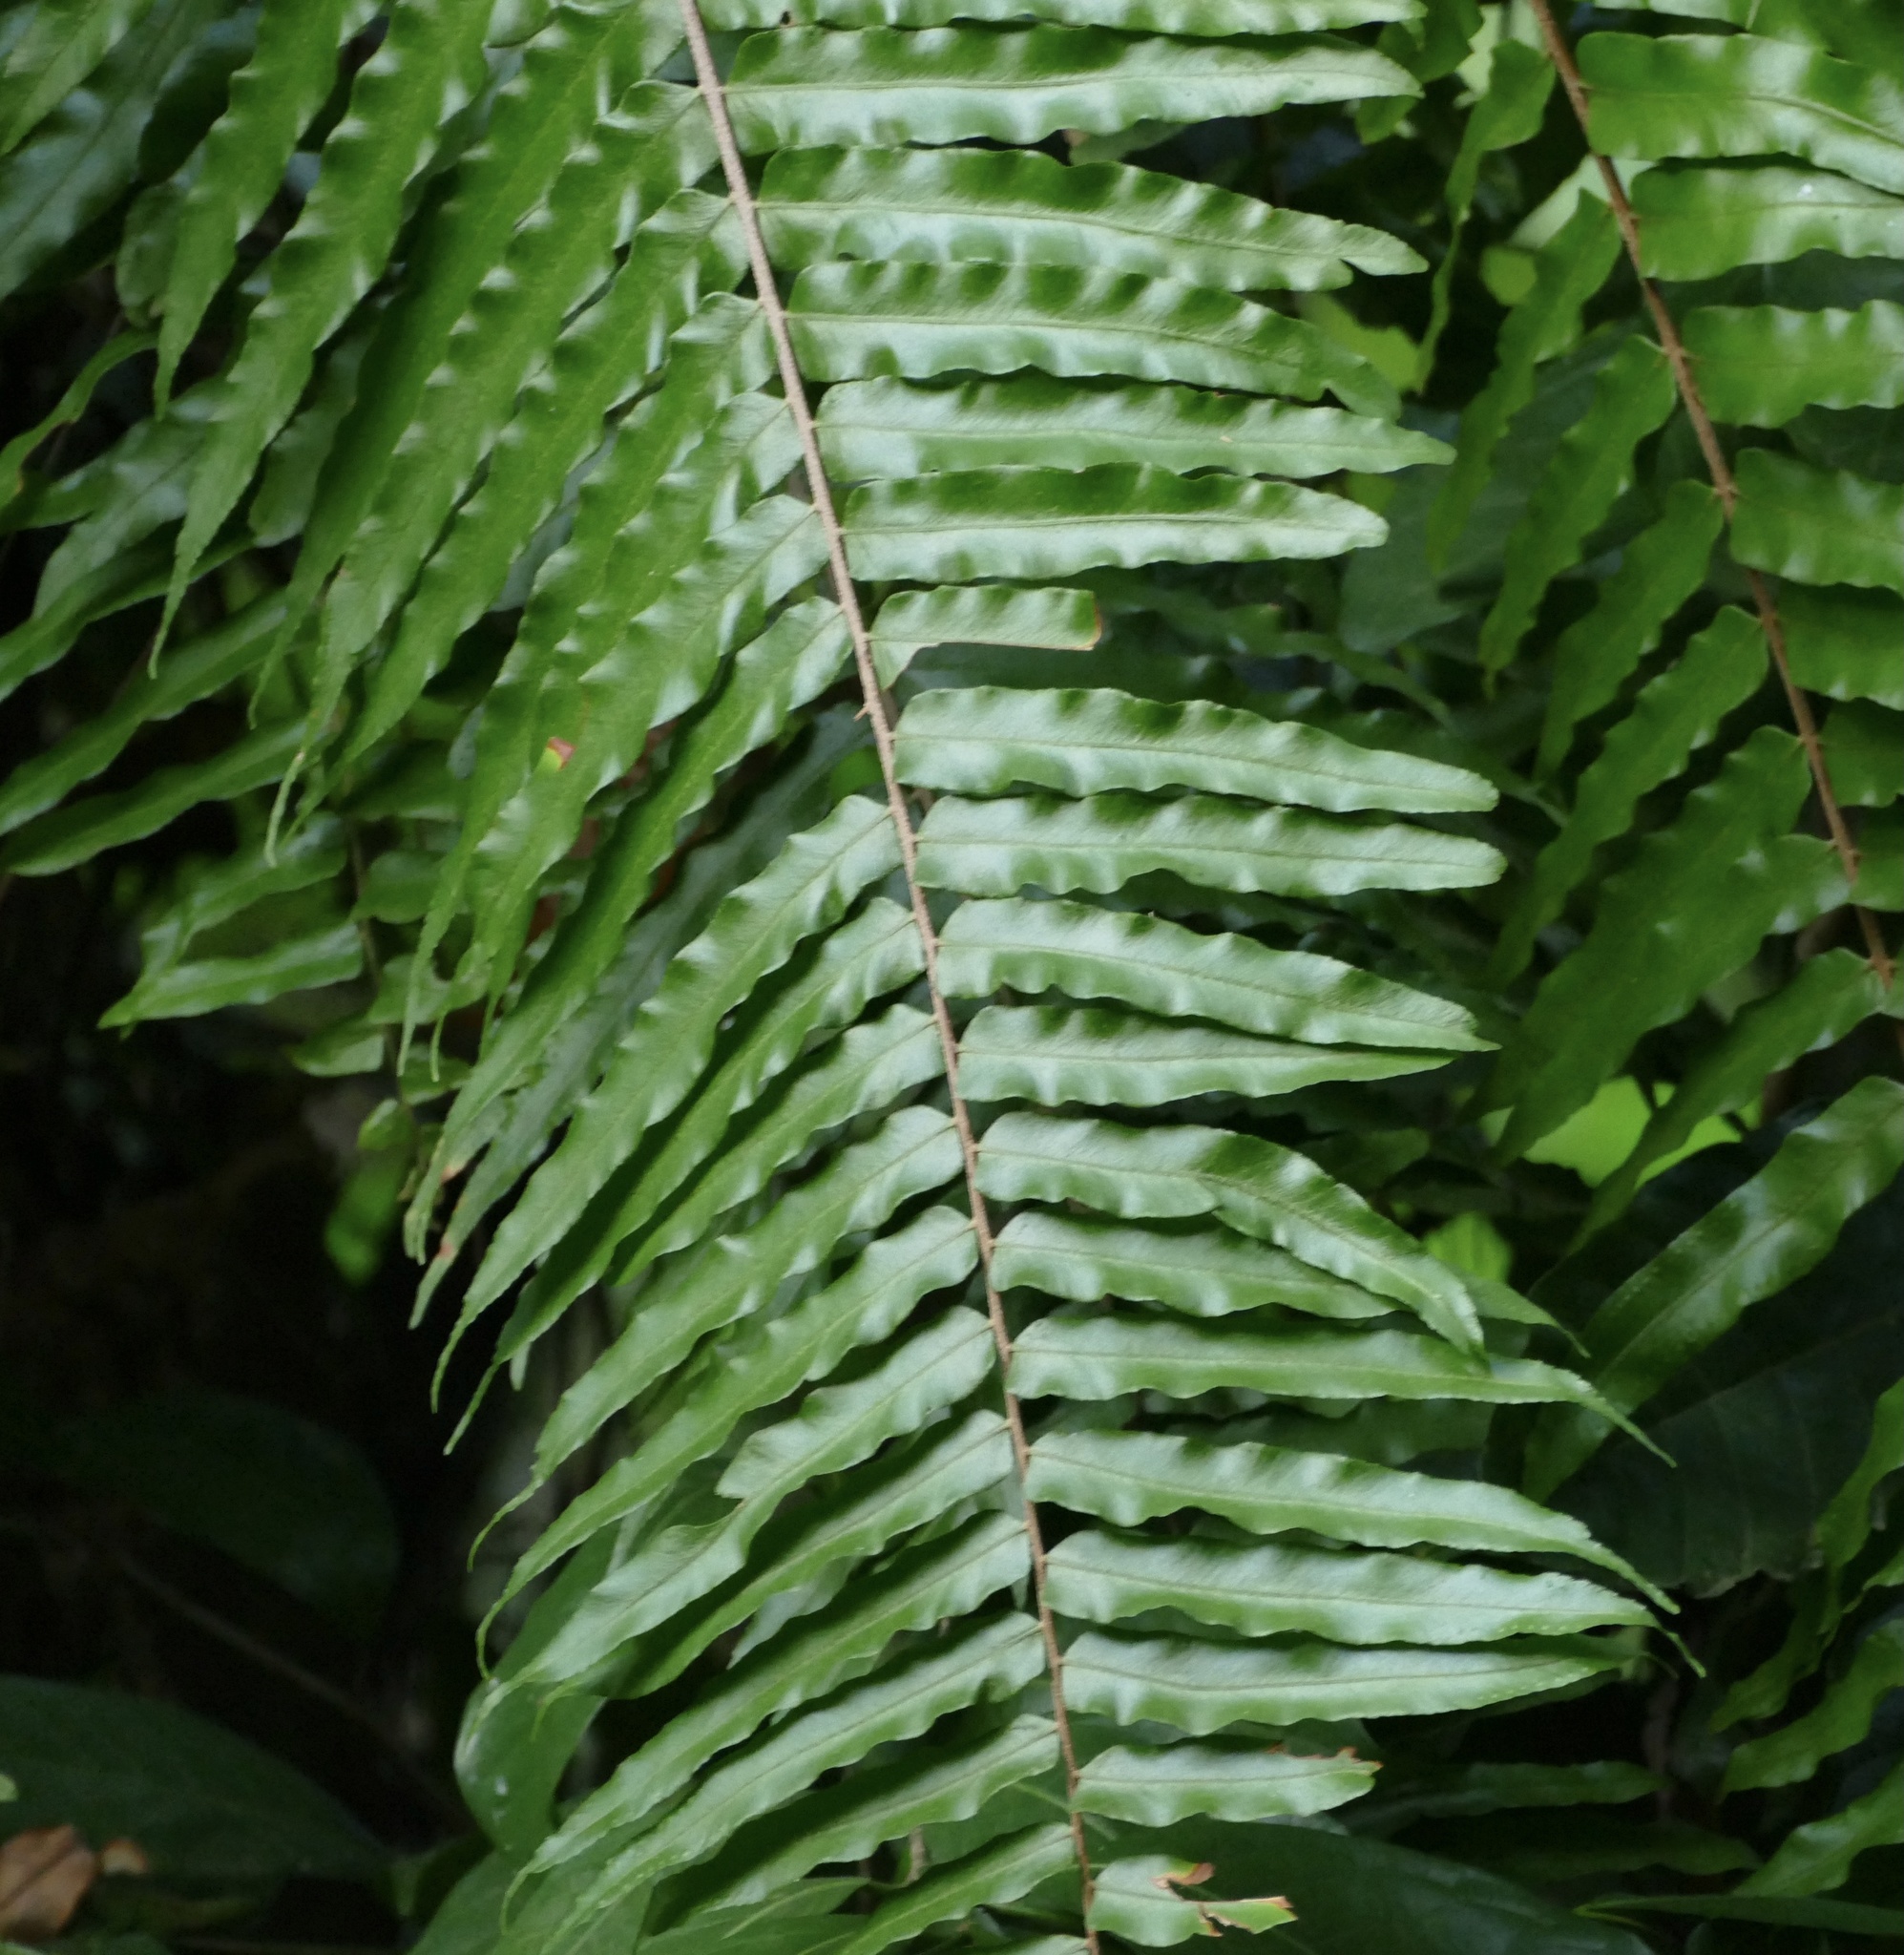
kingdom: Plantae
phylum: Tracheophyta
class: Polypodiopsida
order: Polypodiales
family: Nephrolepidaceae
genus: Nephrolepis
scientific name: Nephrolepis biserrata
